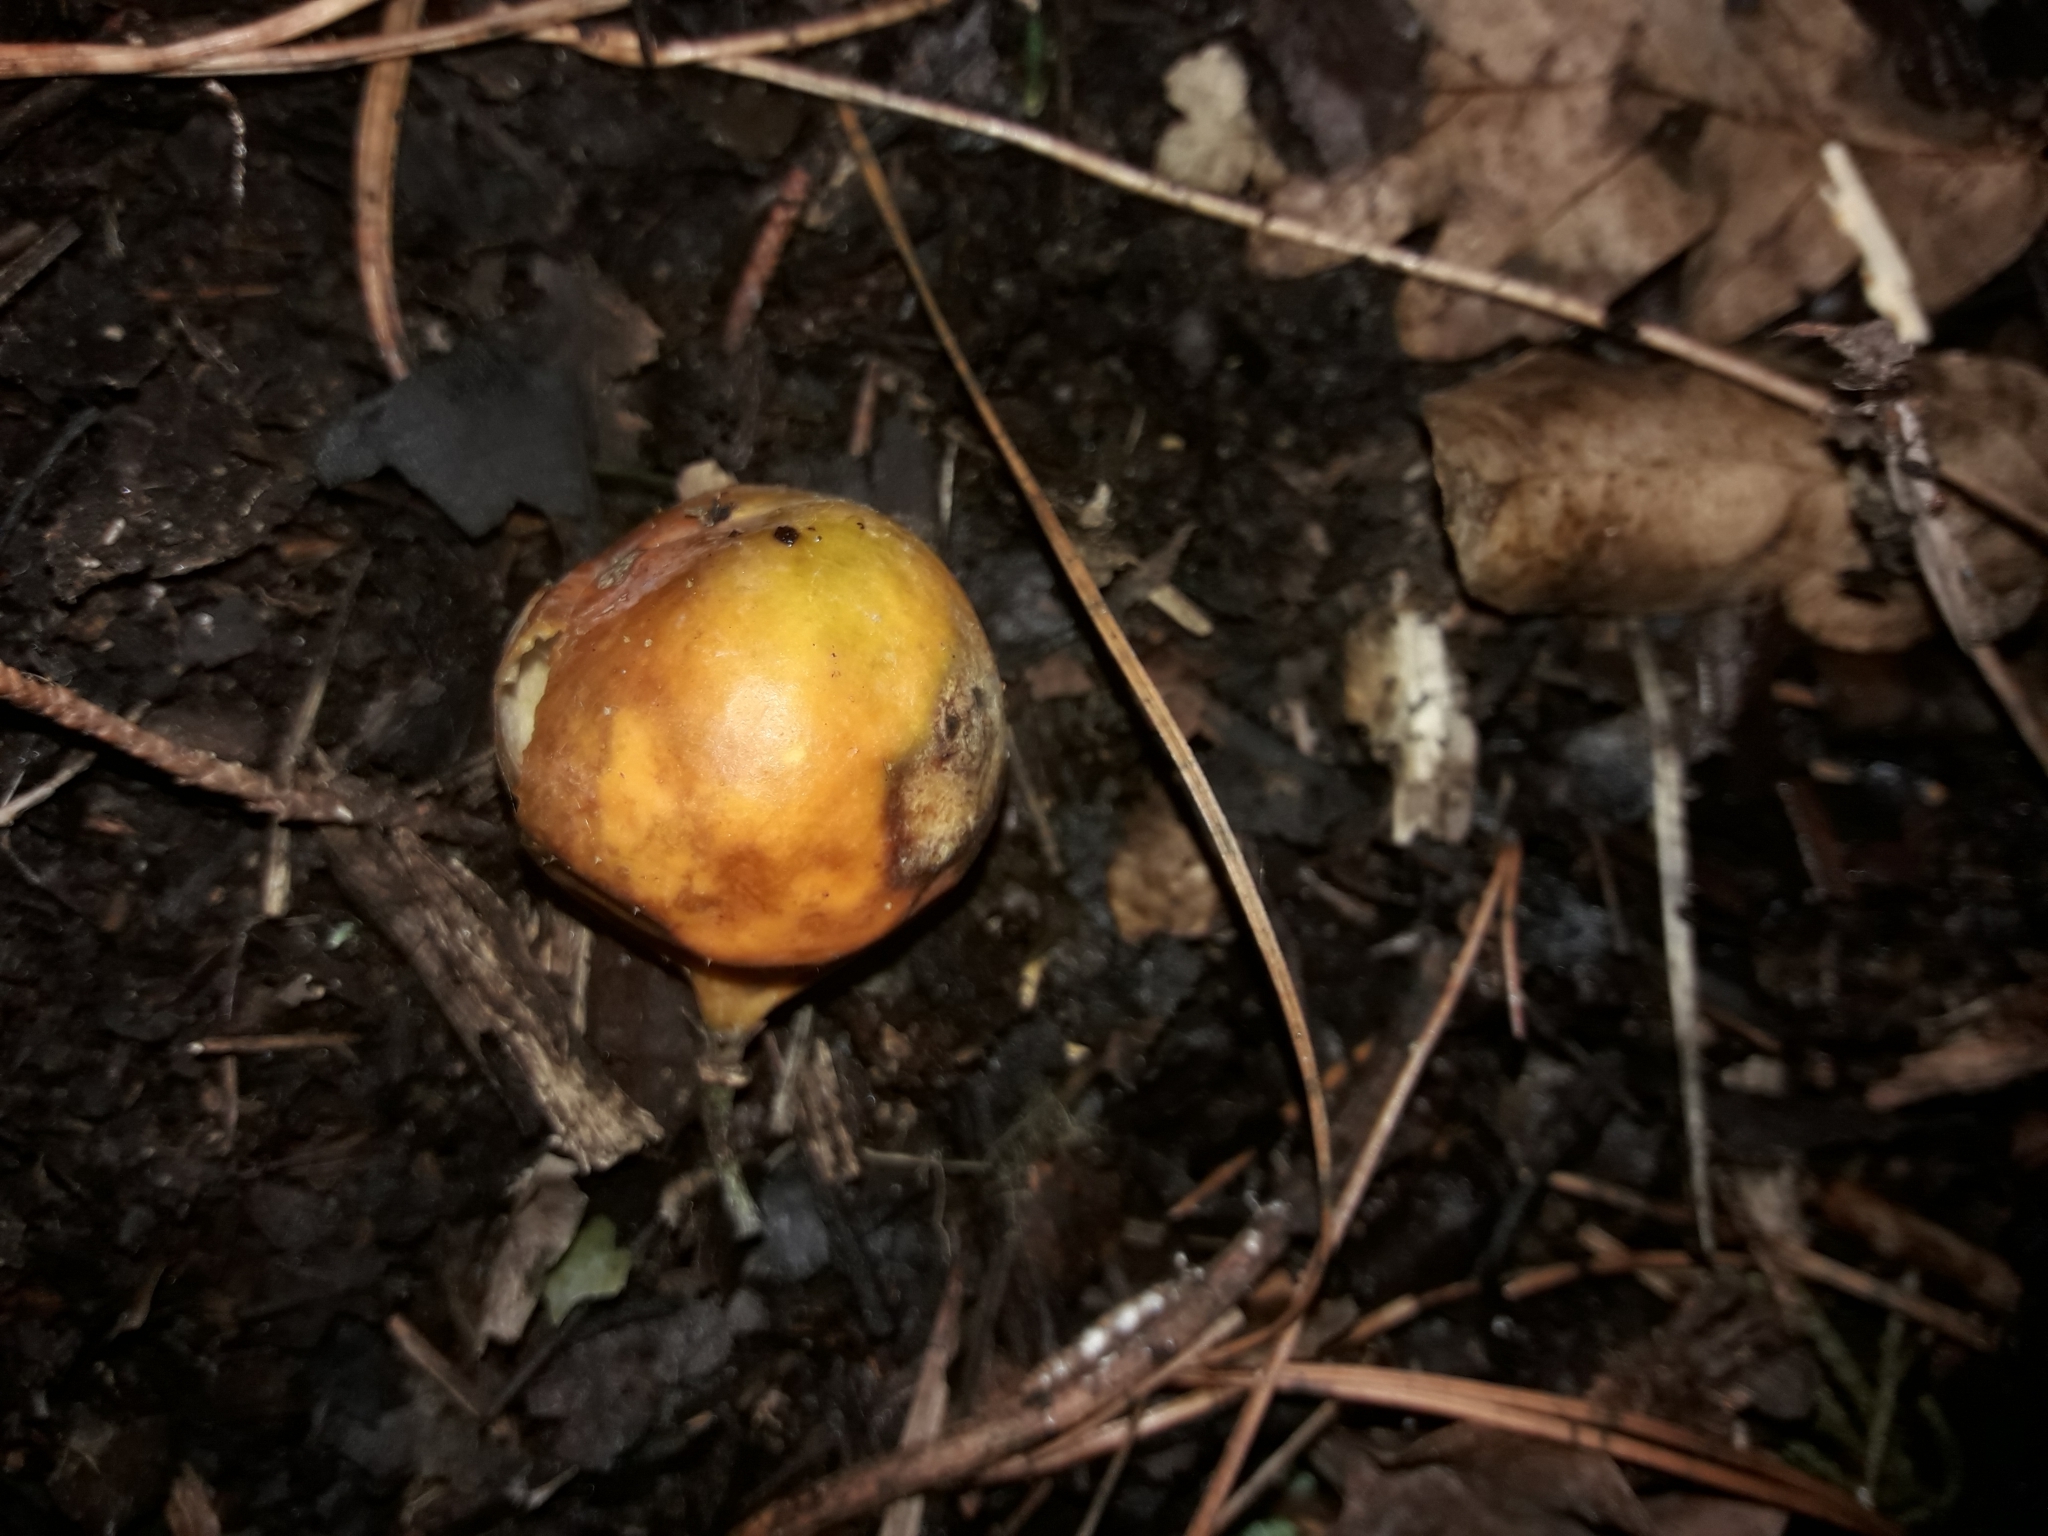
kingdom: Plantae
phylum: Tracheophyta
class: Magnoliopsida
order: Malpighiales
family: Passifloraceae
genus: Passiflora
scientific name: Passiflora tetrandra
